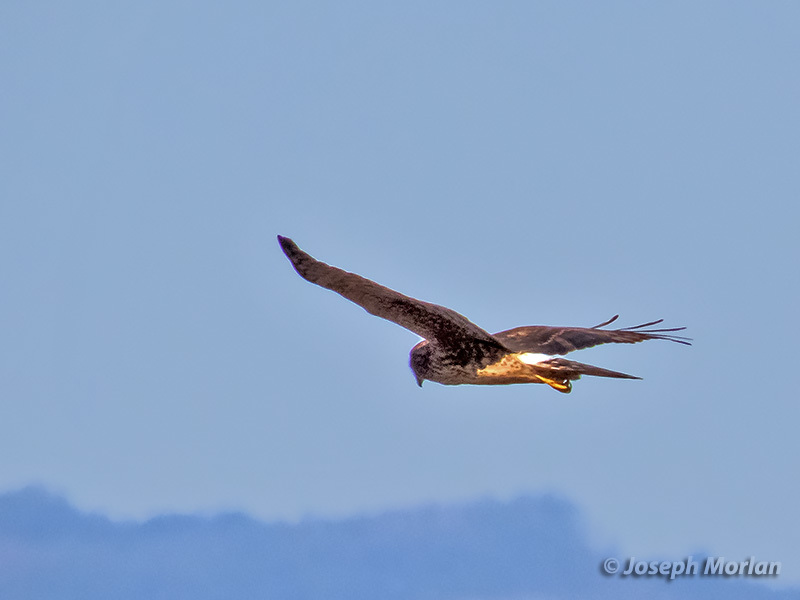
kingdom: Animalia
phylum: Chordata
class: Aves
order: Accipitriformes
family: Accipitridae
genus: Circus
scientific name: Circus cyaneus
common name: Hen harrier
